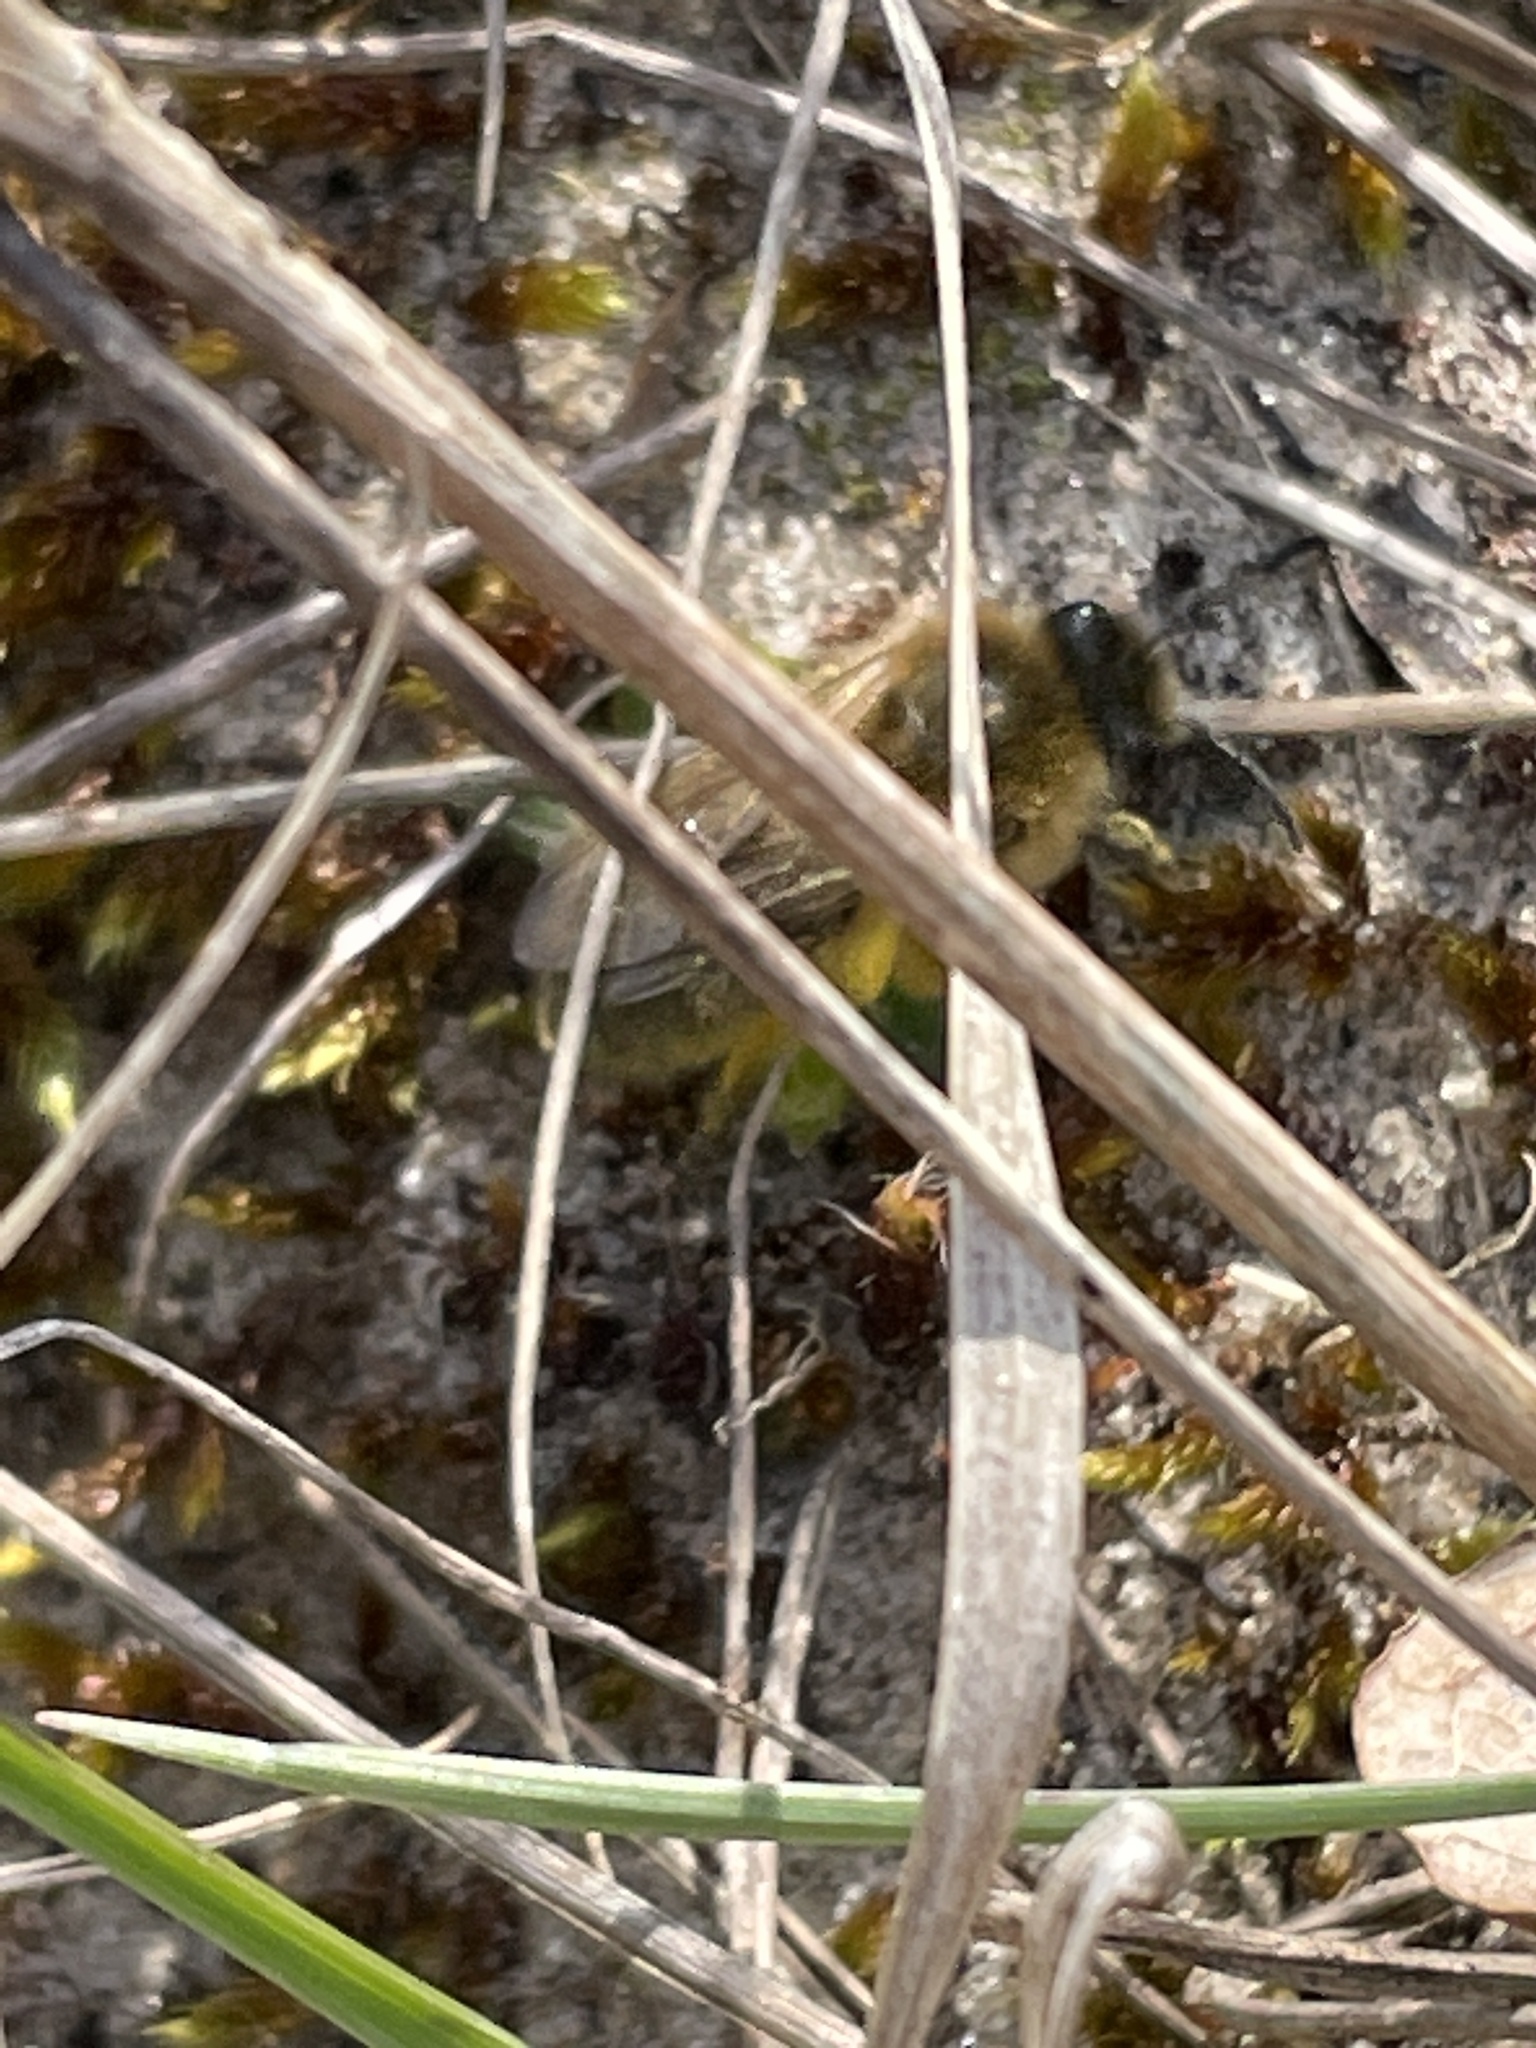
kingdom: Animalia
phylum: Arthropoda
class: Insecta
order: Hymenoptera
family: Colletidae
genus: Colletes
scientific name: Colletes cunicularius
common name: Early colletes
